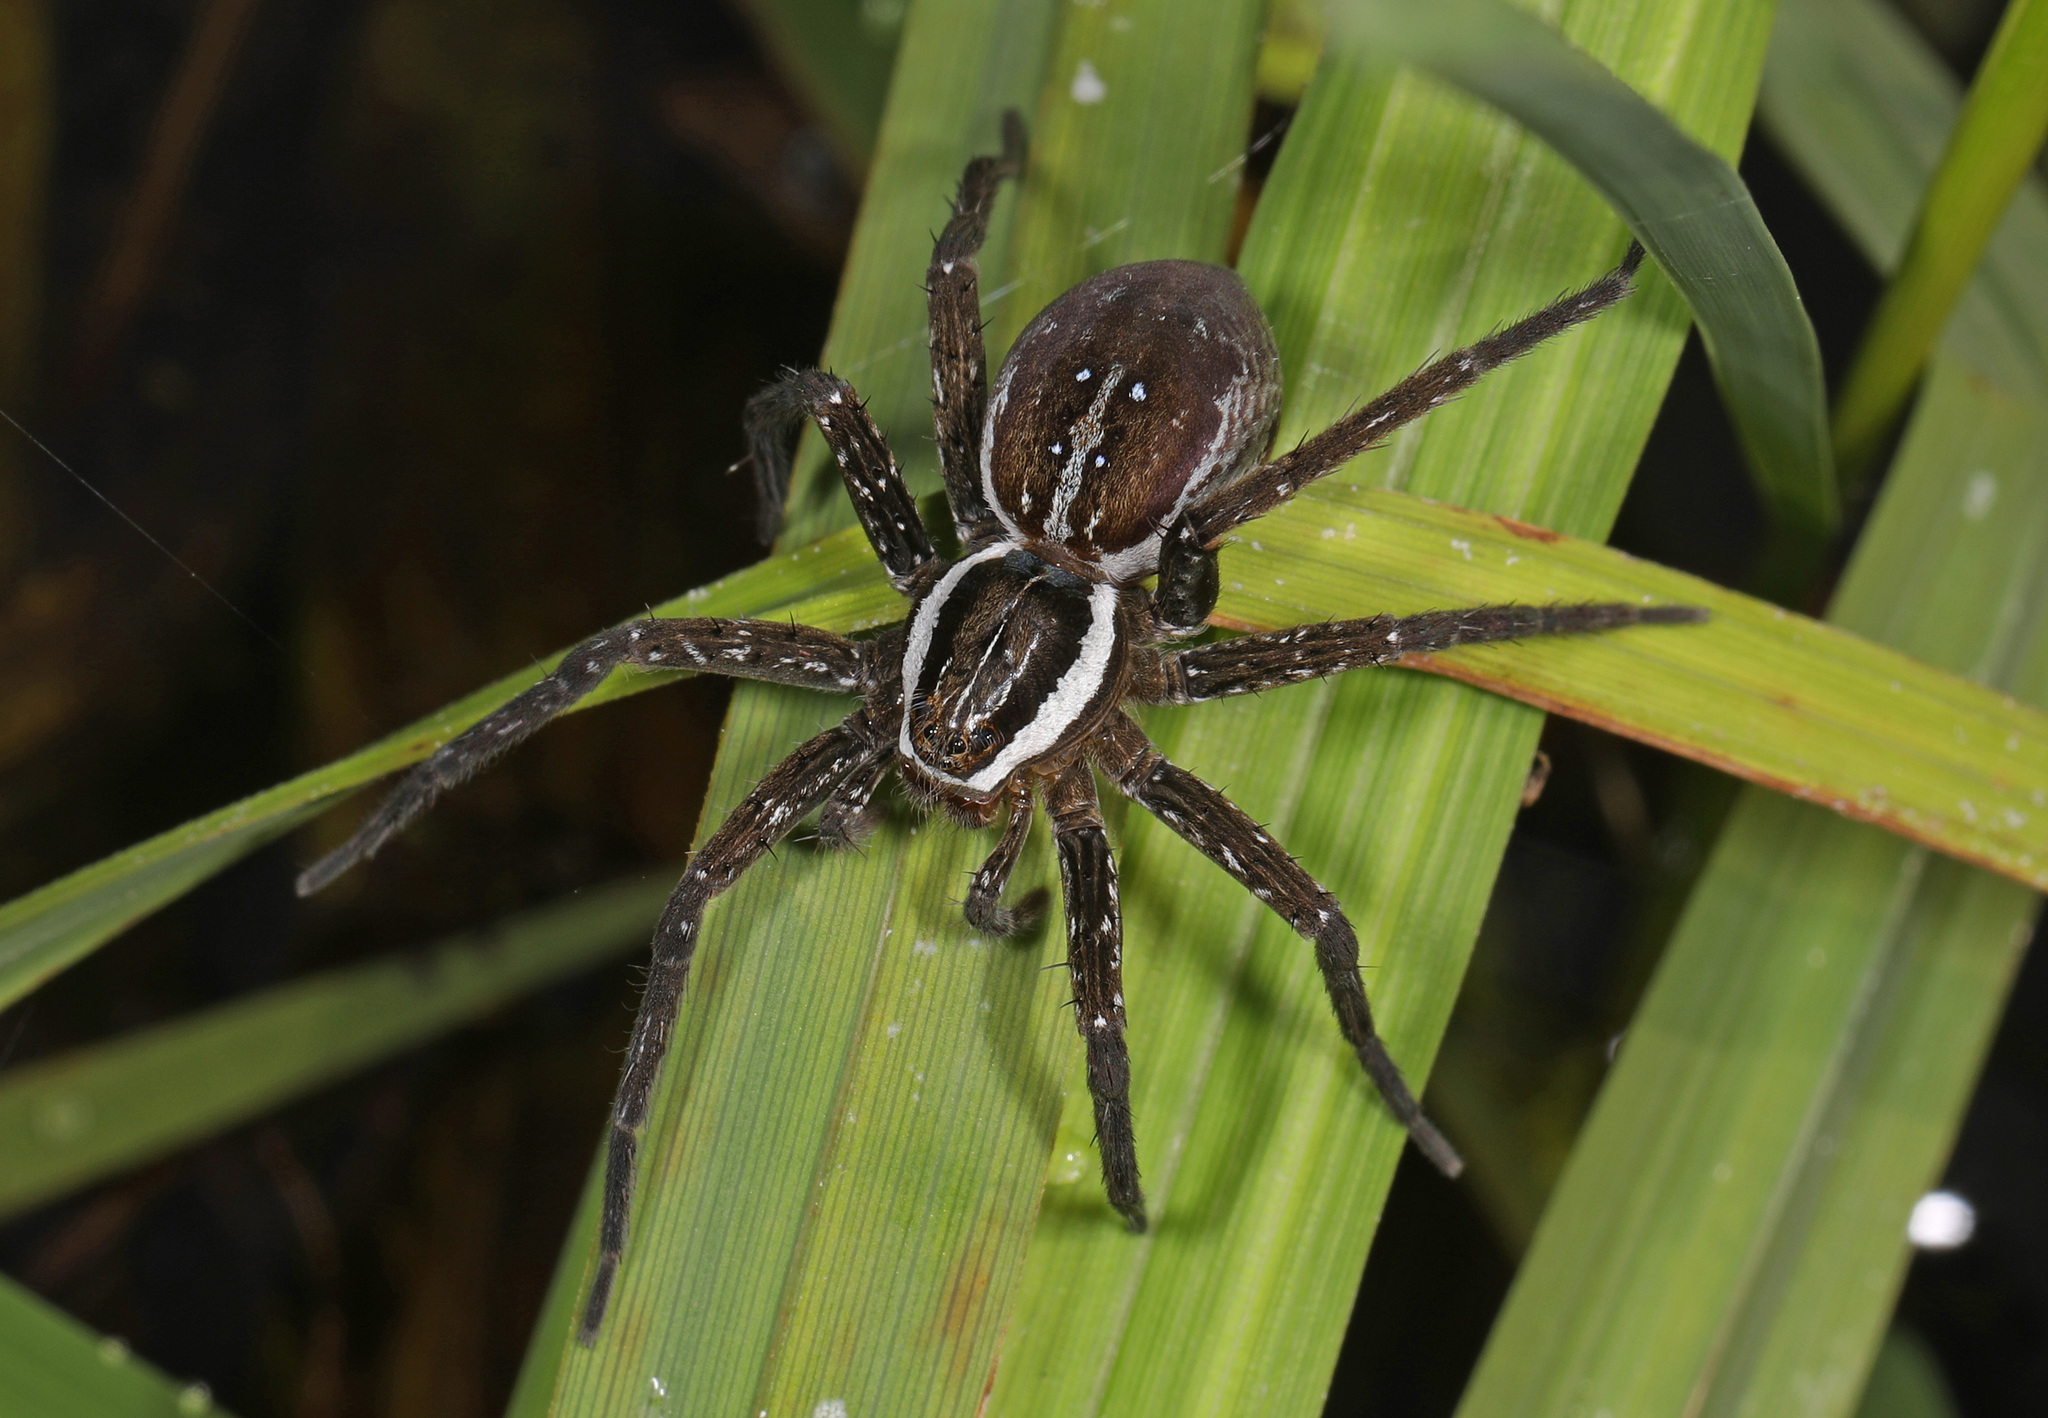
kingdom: Animalia
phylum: Arthropoda
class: Arachnida
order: Araneae
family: Pisauridae
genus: Dolomedes
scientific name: Dolomedes triton
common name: Six-spotted fishing spider
